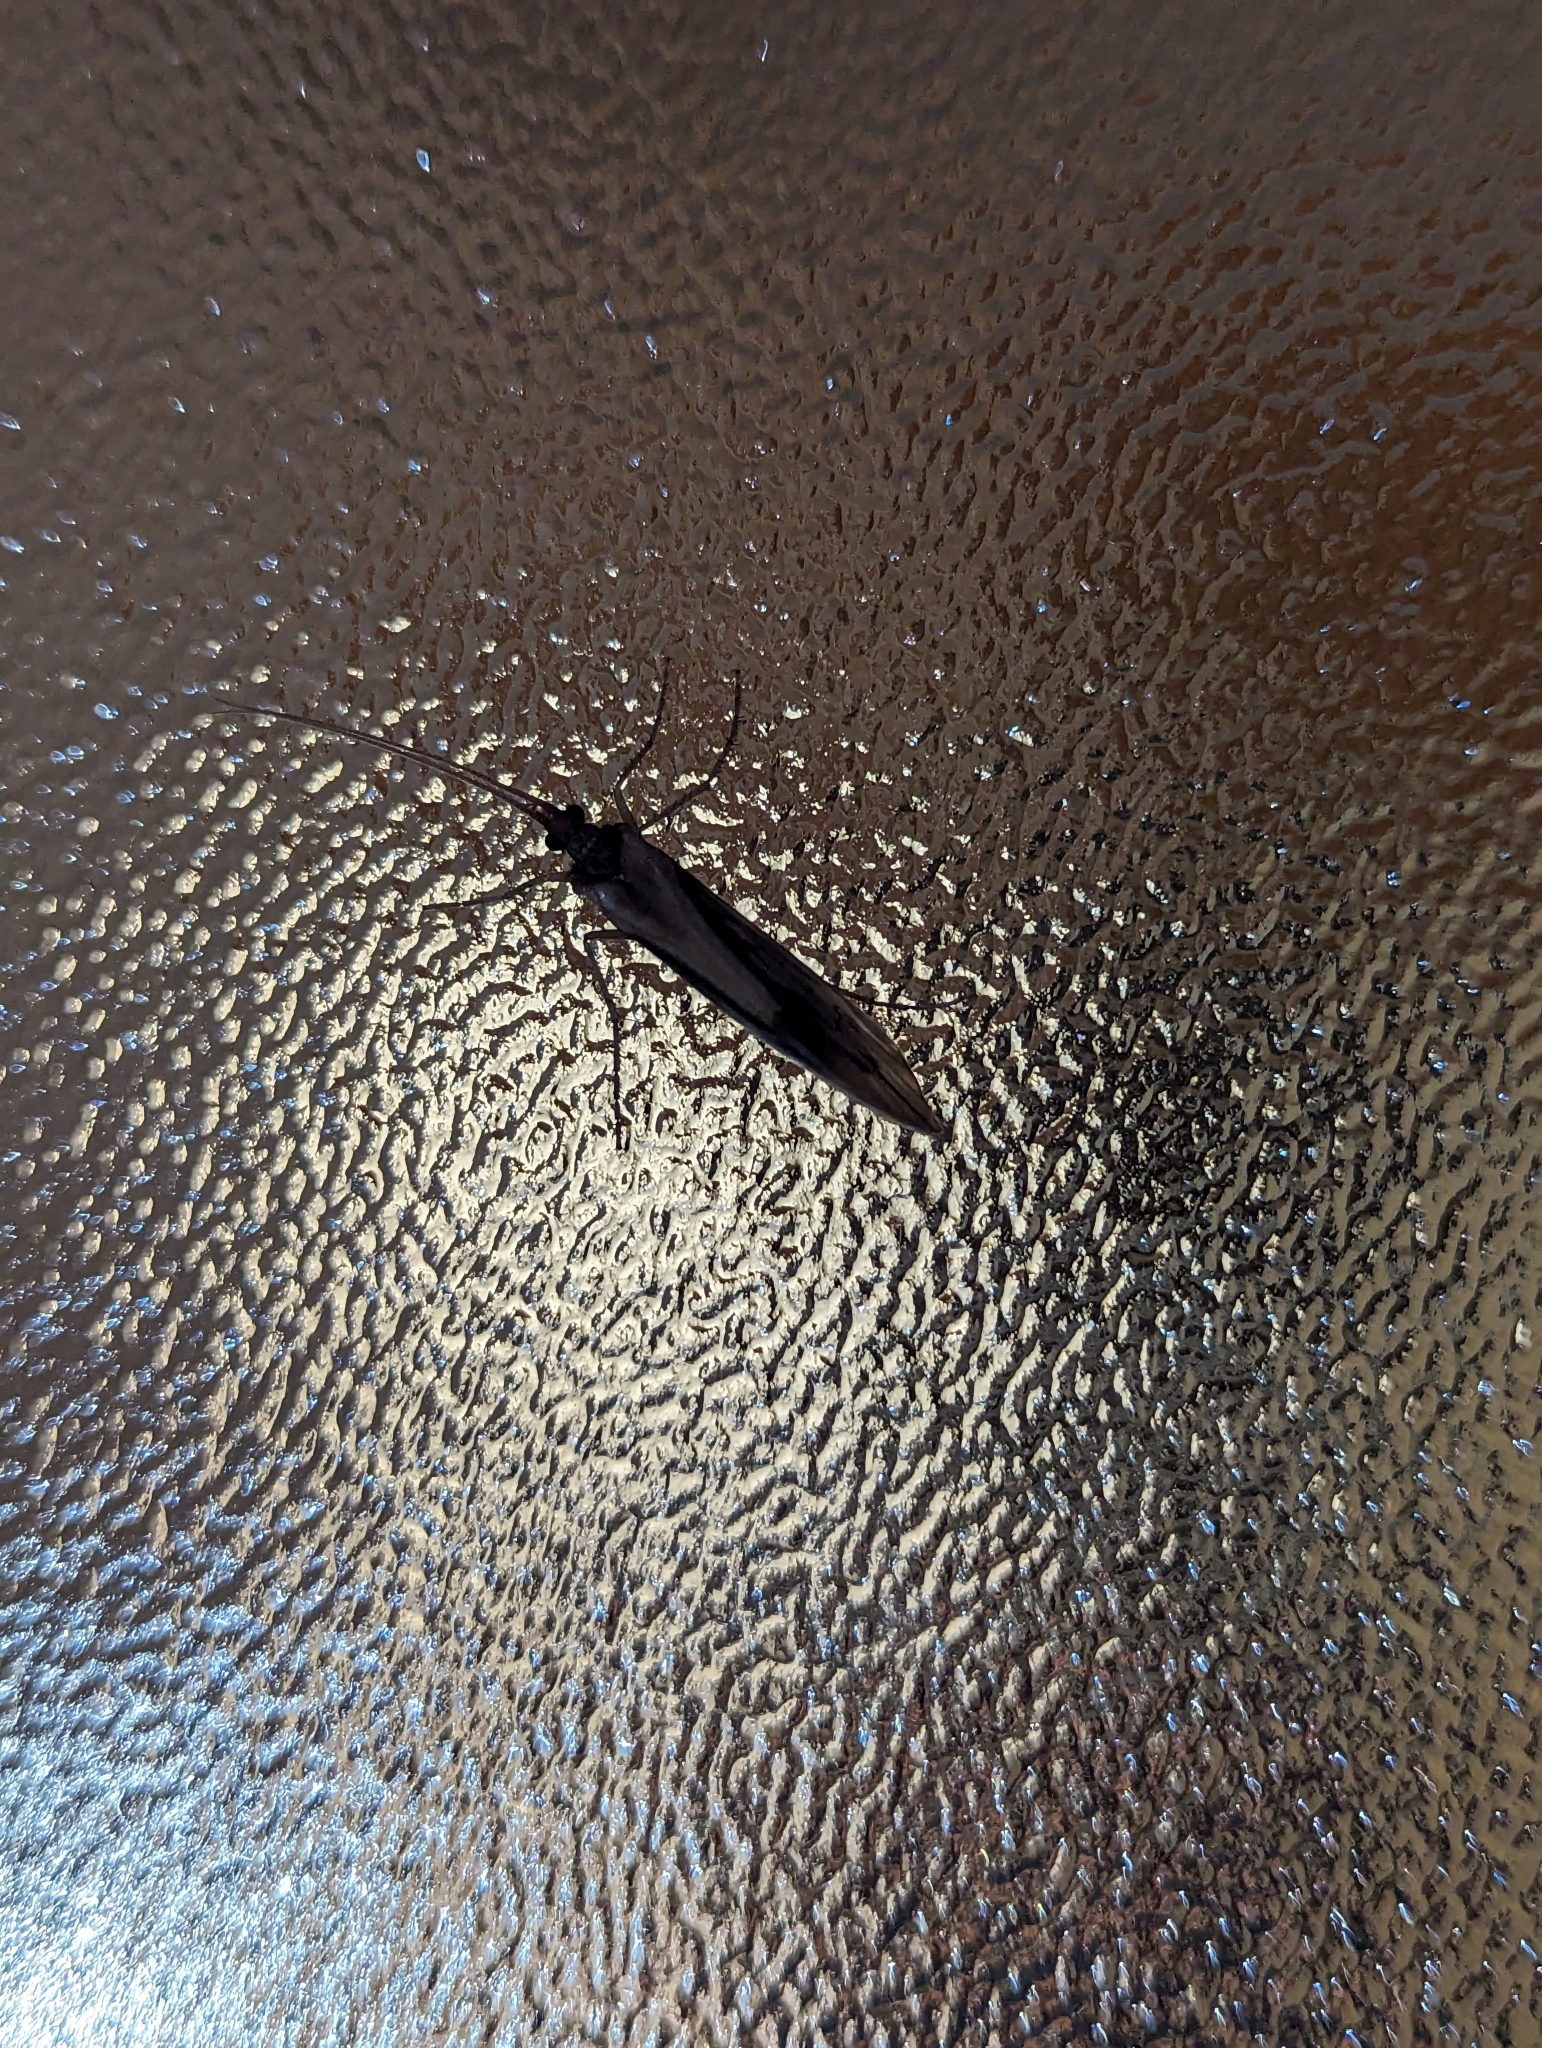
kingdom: Animalia
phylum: Arthropoda
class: Insecta
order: Trichoptera
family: Limnephilidae
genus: Platycentropus
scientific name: Platycentropus radiatus
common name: Chocolate-and-cream sedge
